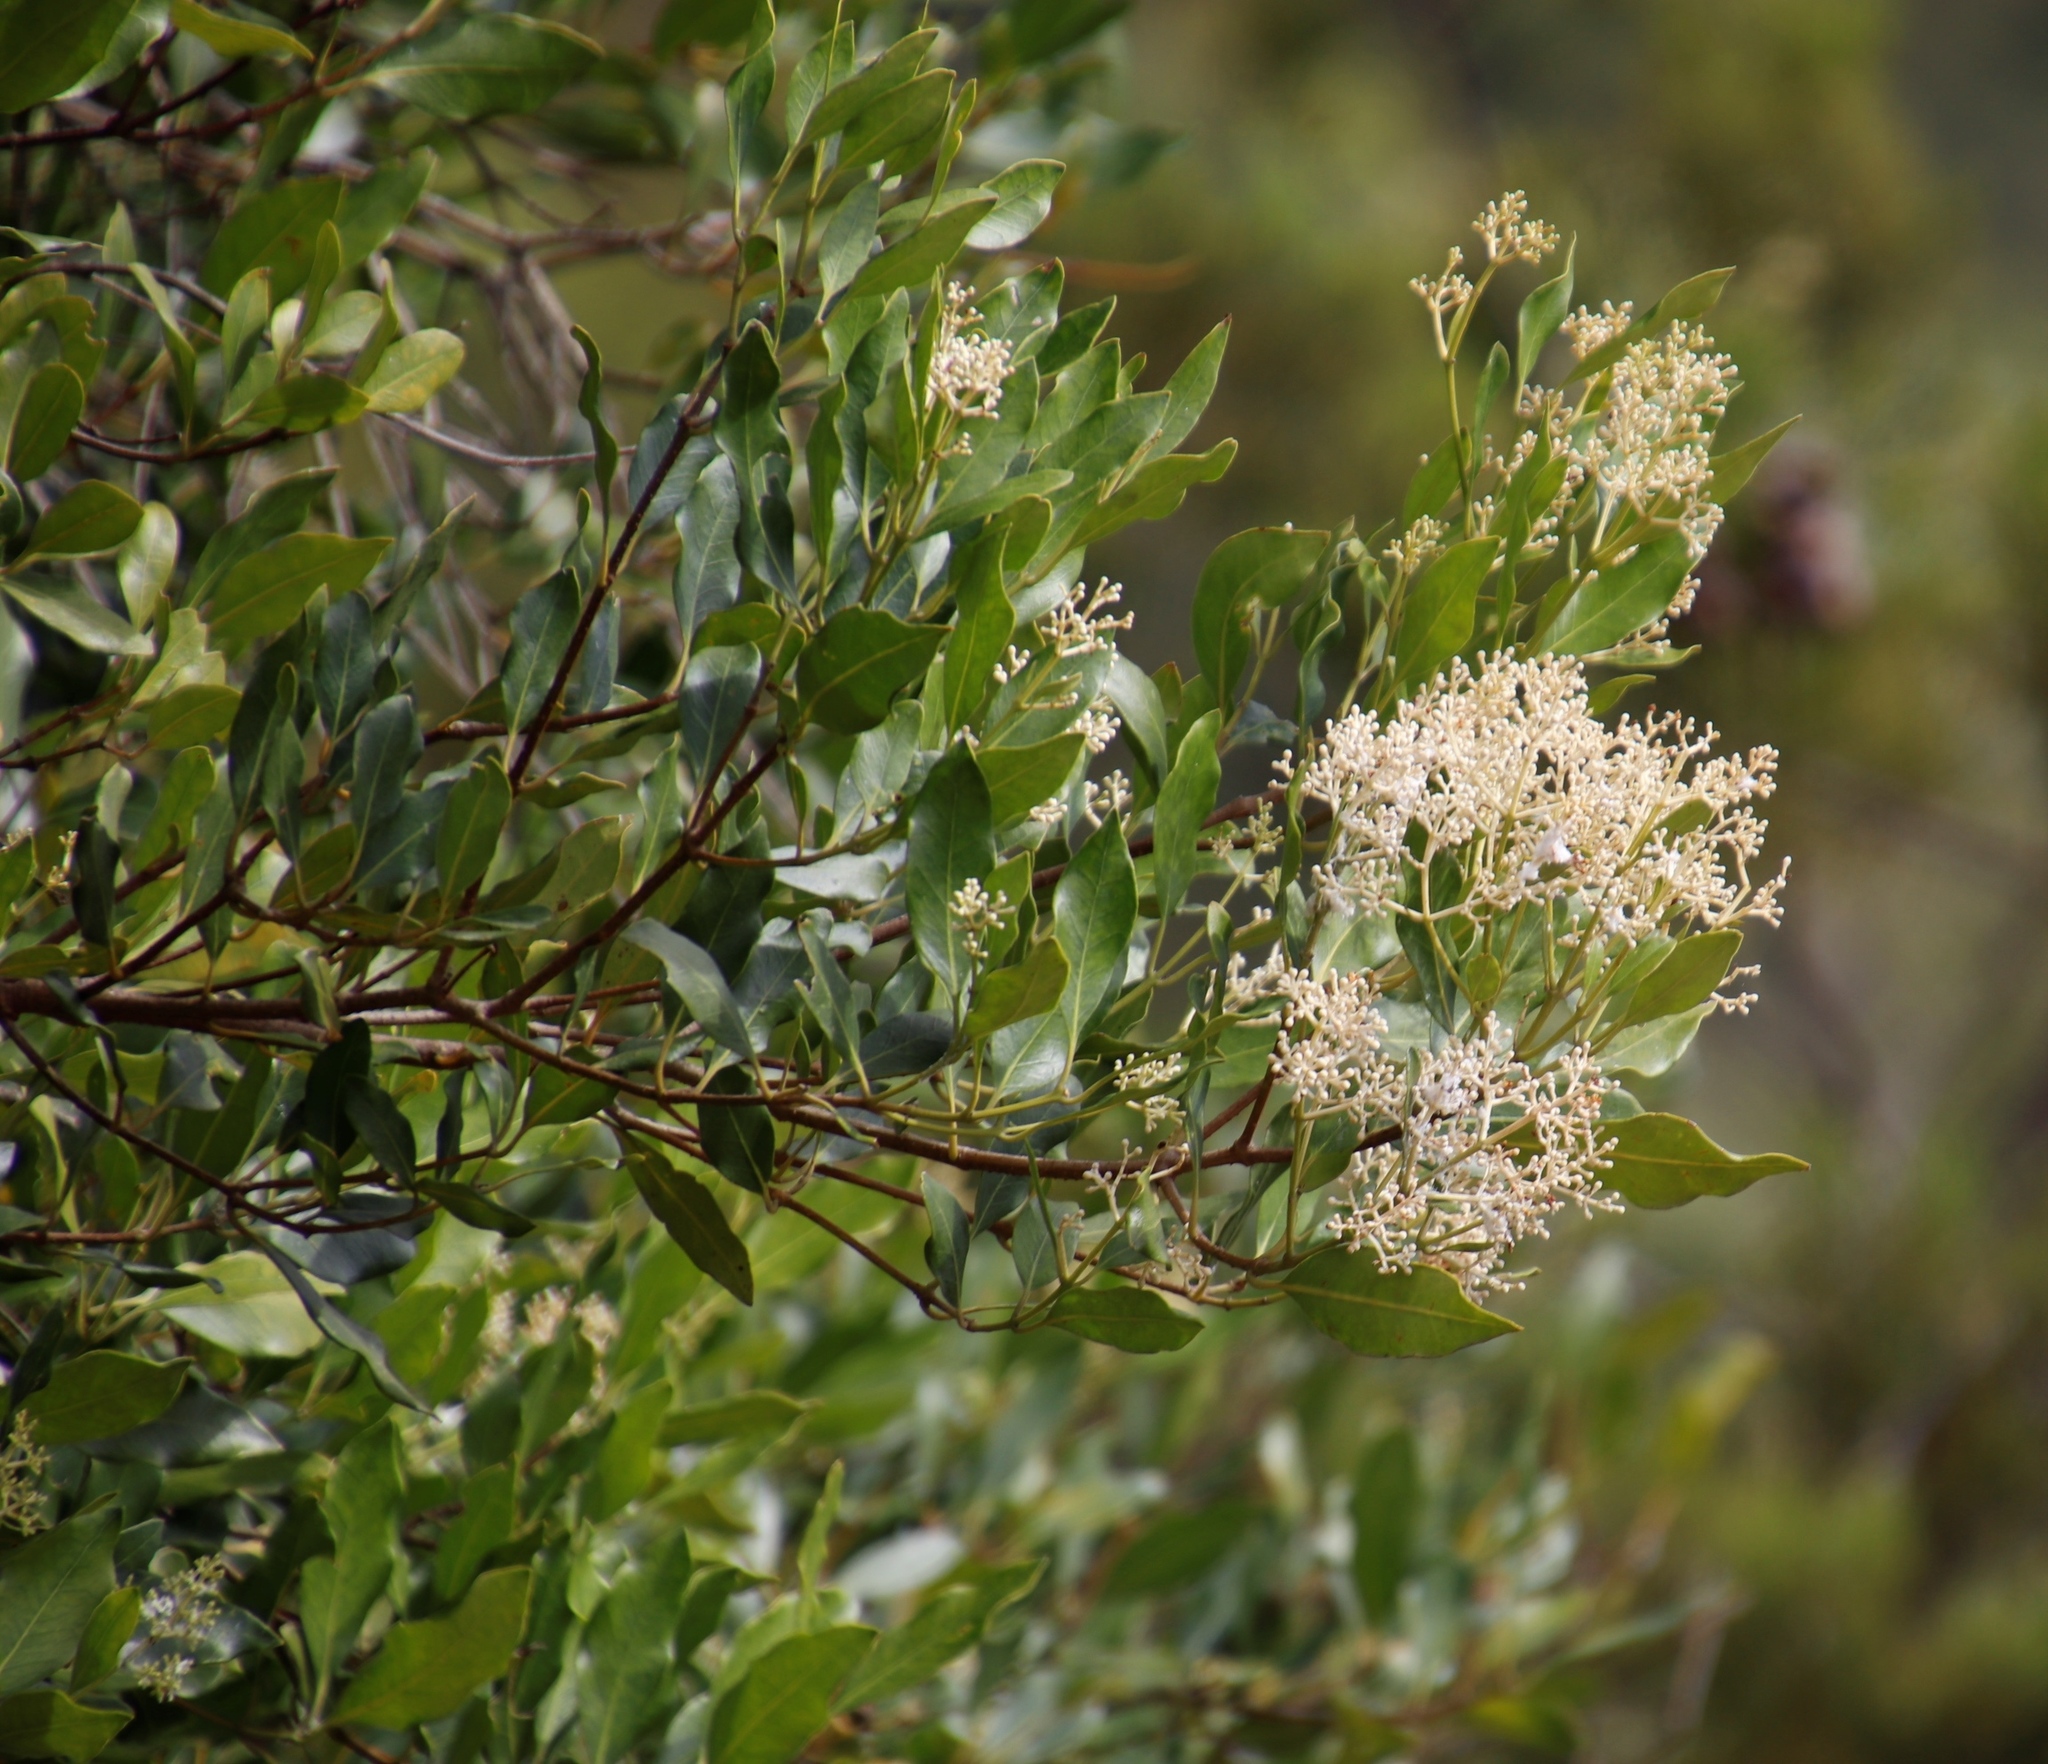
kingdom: Plantae
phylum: Tracheophyta
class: Magnoliopsida
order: Lamiales
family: Oleaceae
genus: Olea
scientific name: Olea capensis
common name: Black ironwood
